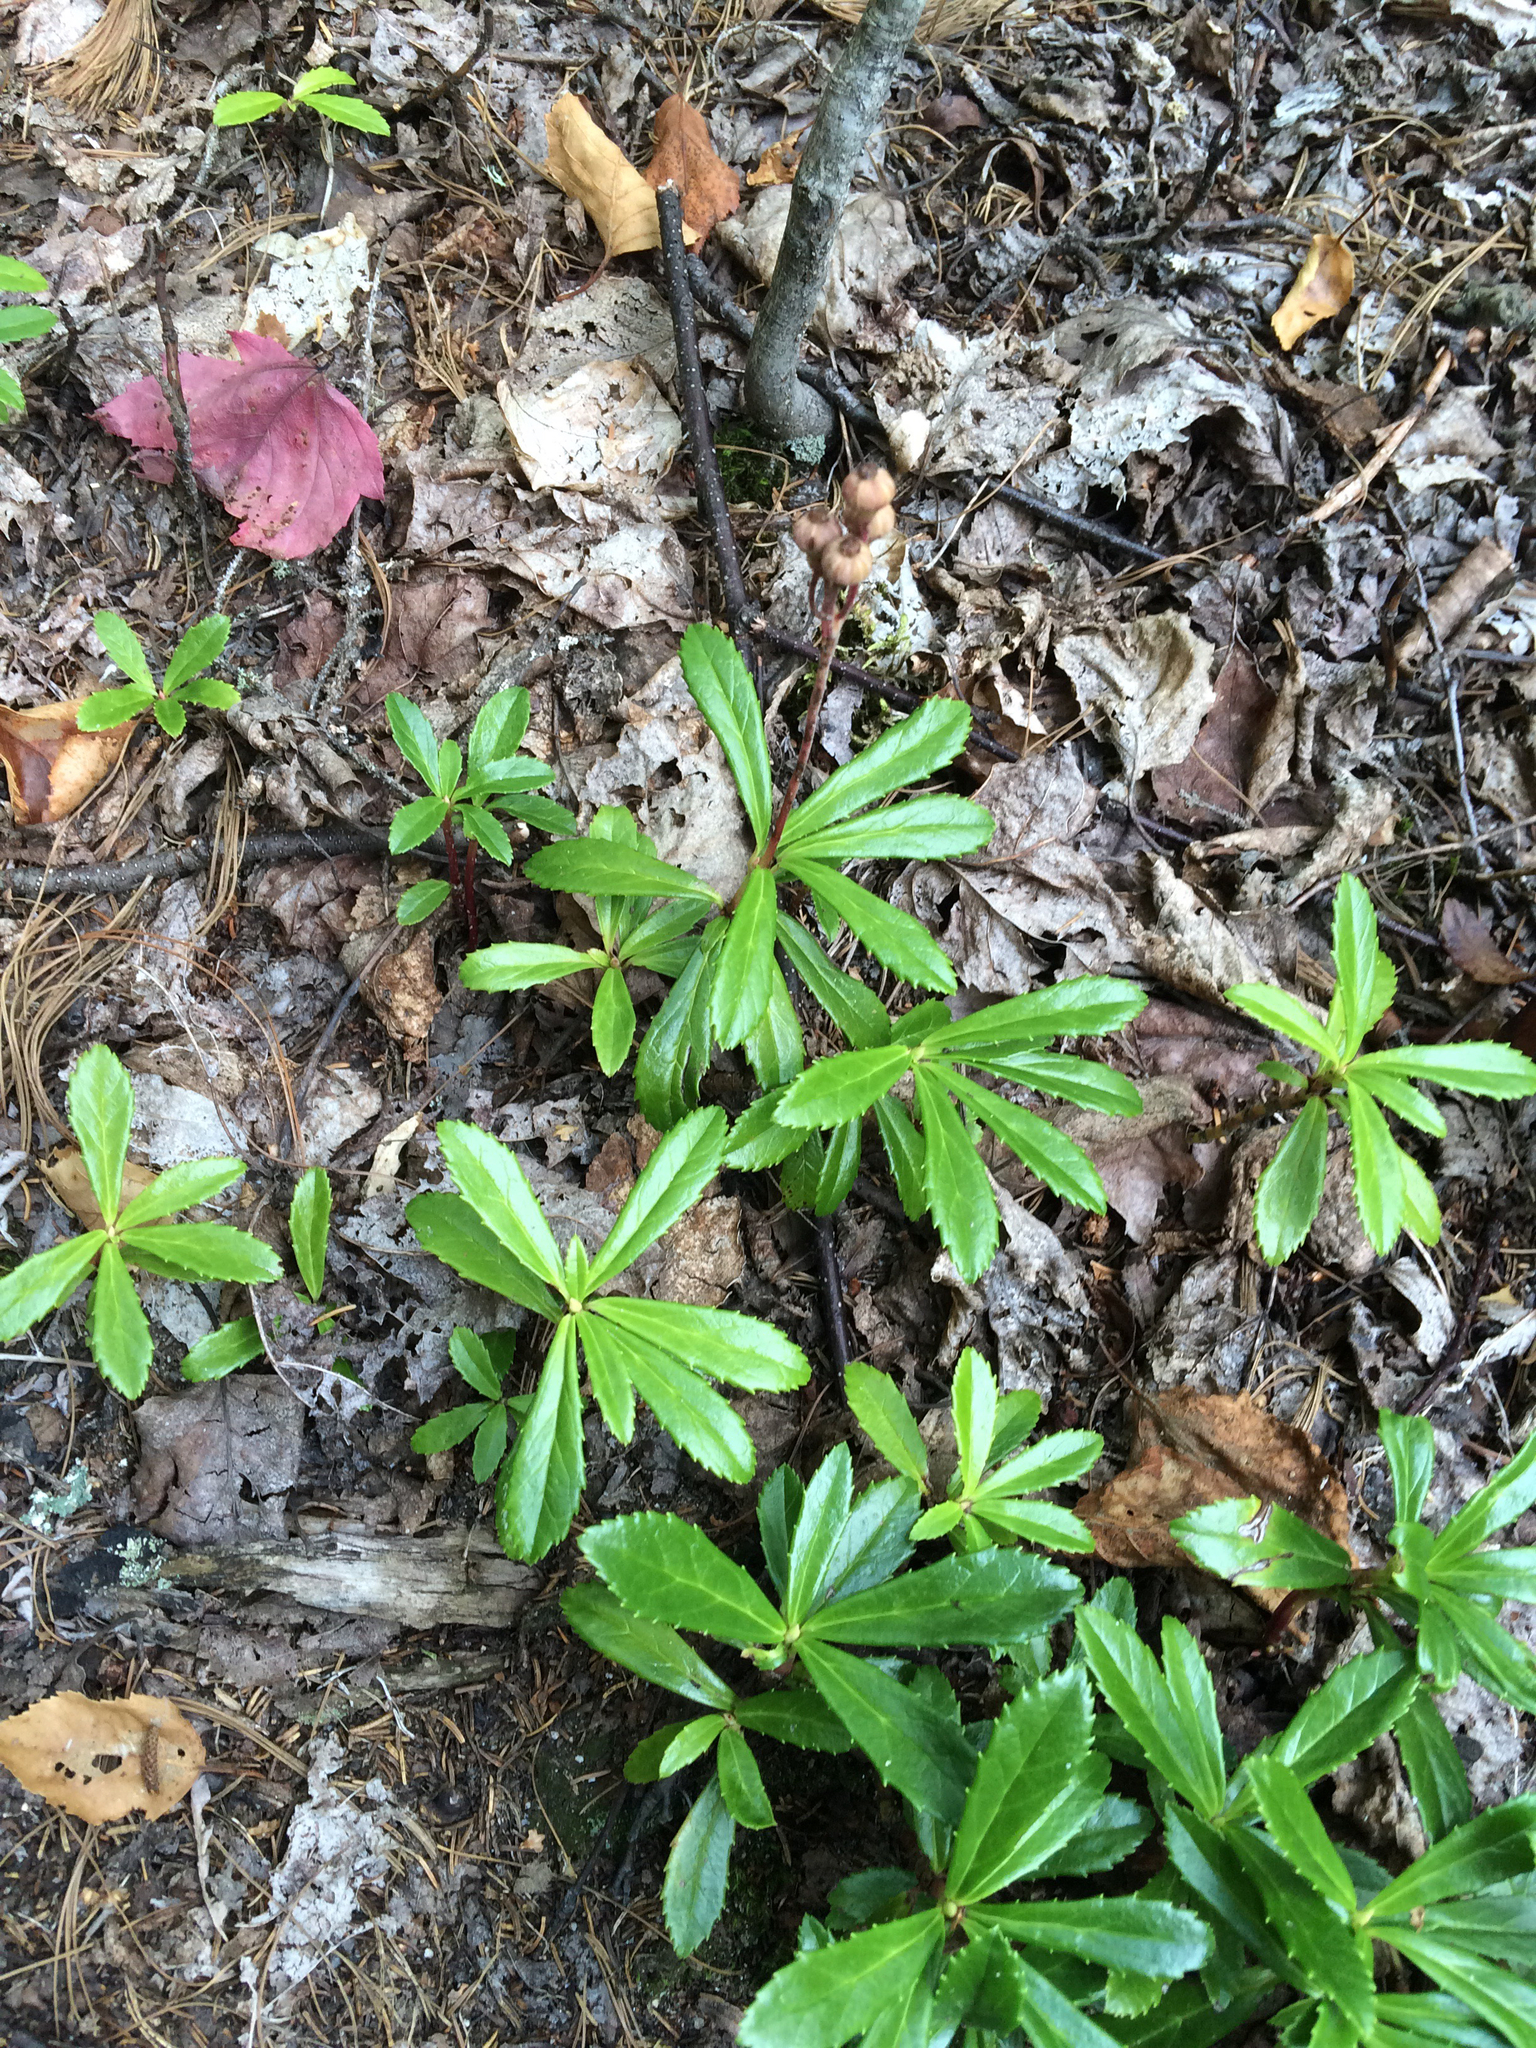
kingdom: Plantae
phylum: Tracheophyta
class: Magnoliopsida
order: Ericales
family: Ericaceae
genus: Chimaphila
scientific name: Chimaphila umbellata
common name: Pipsissewa
